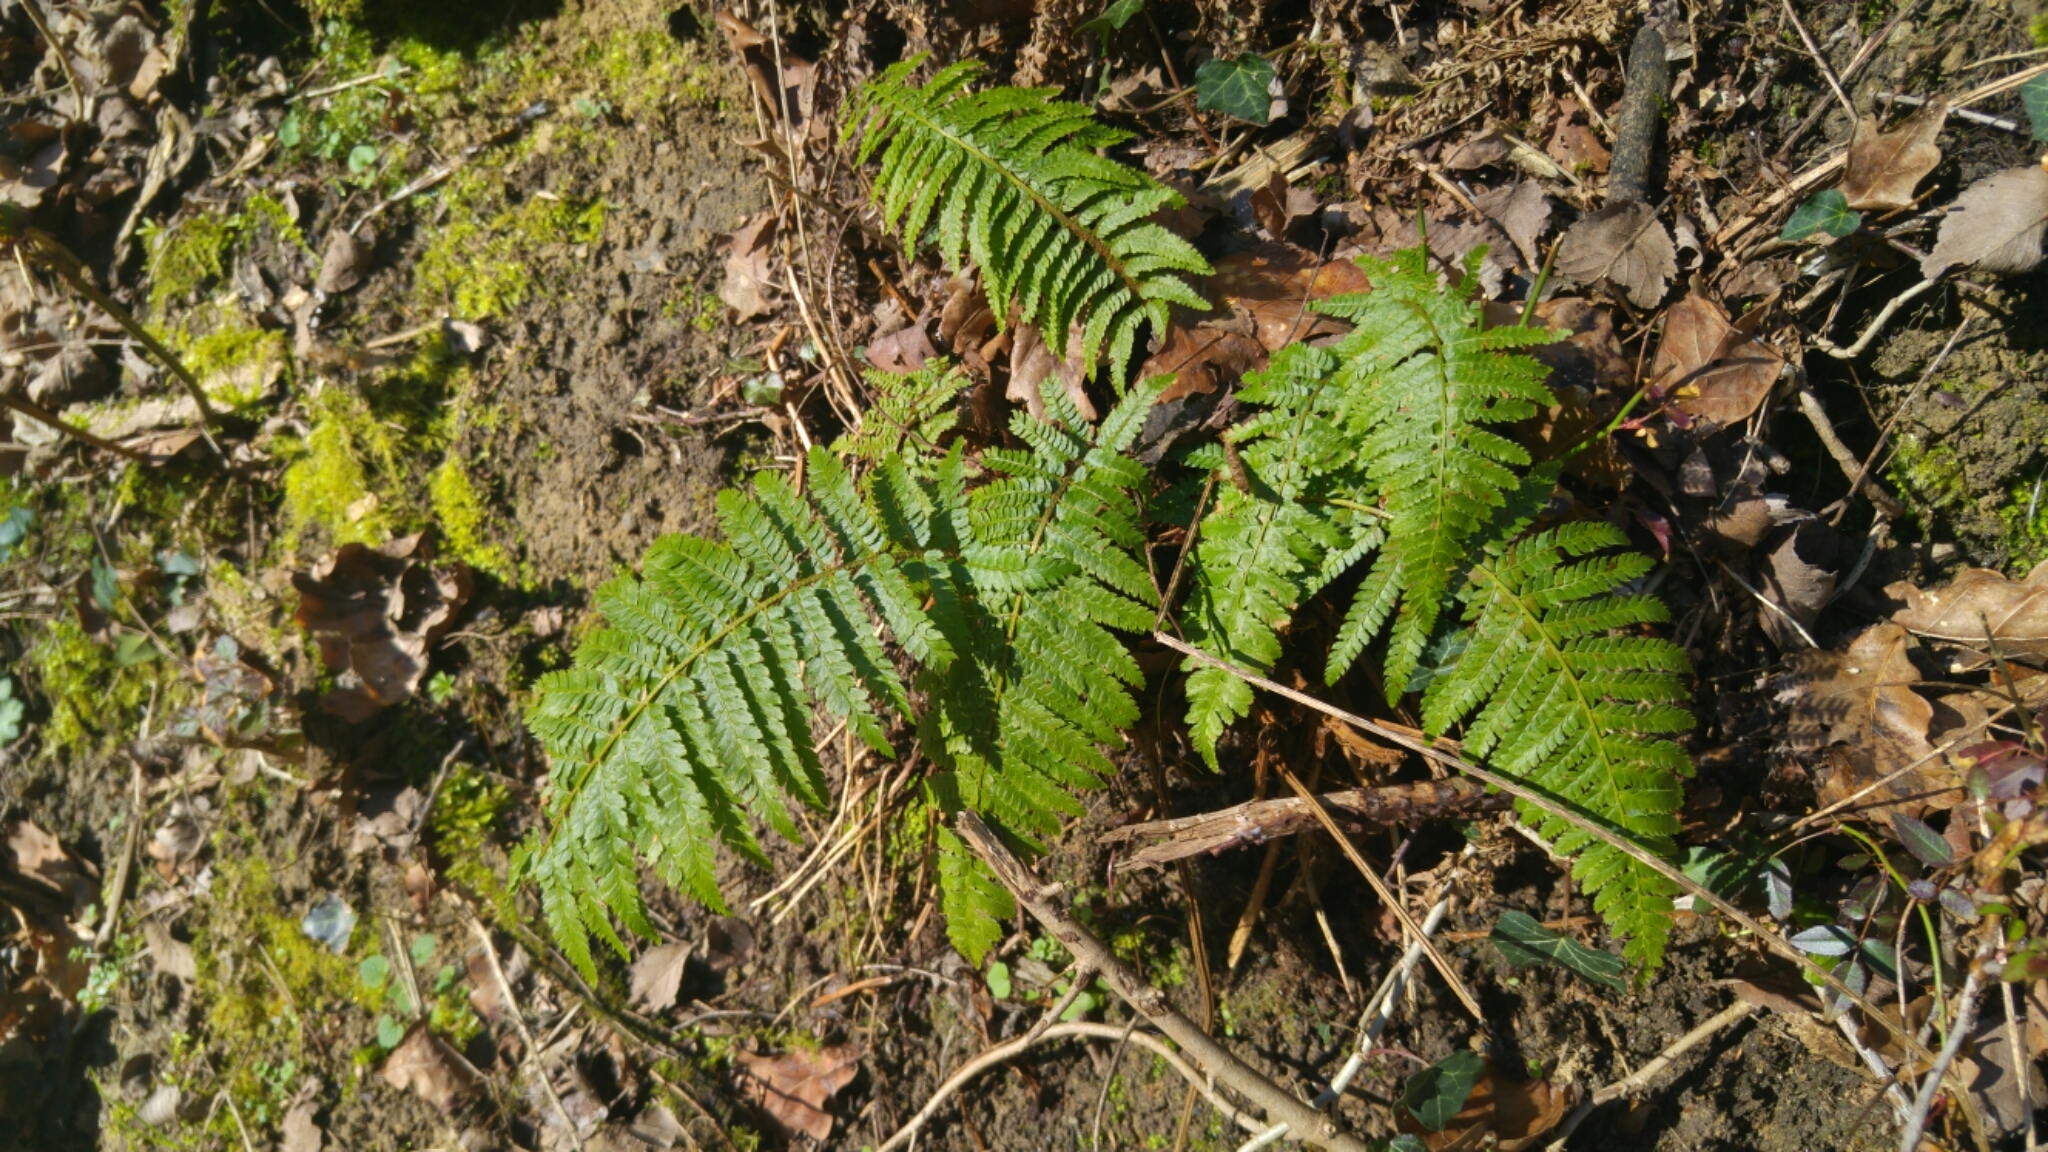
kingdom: Plantae
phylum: Tracheophyta
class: Polypodiopsida
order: Polypodiales
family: Dryopteridaceae
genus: Polystichum
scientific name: Polystichum setiferum
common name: Soft shield-fern
